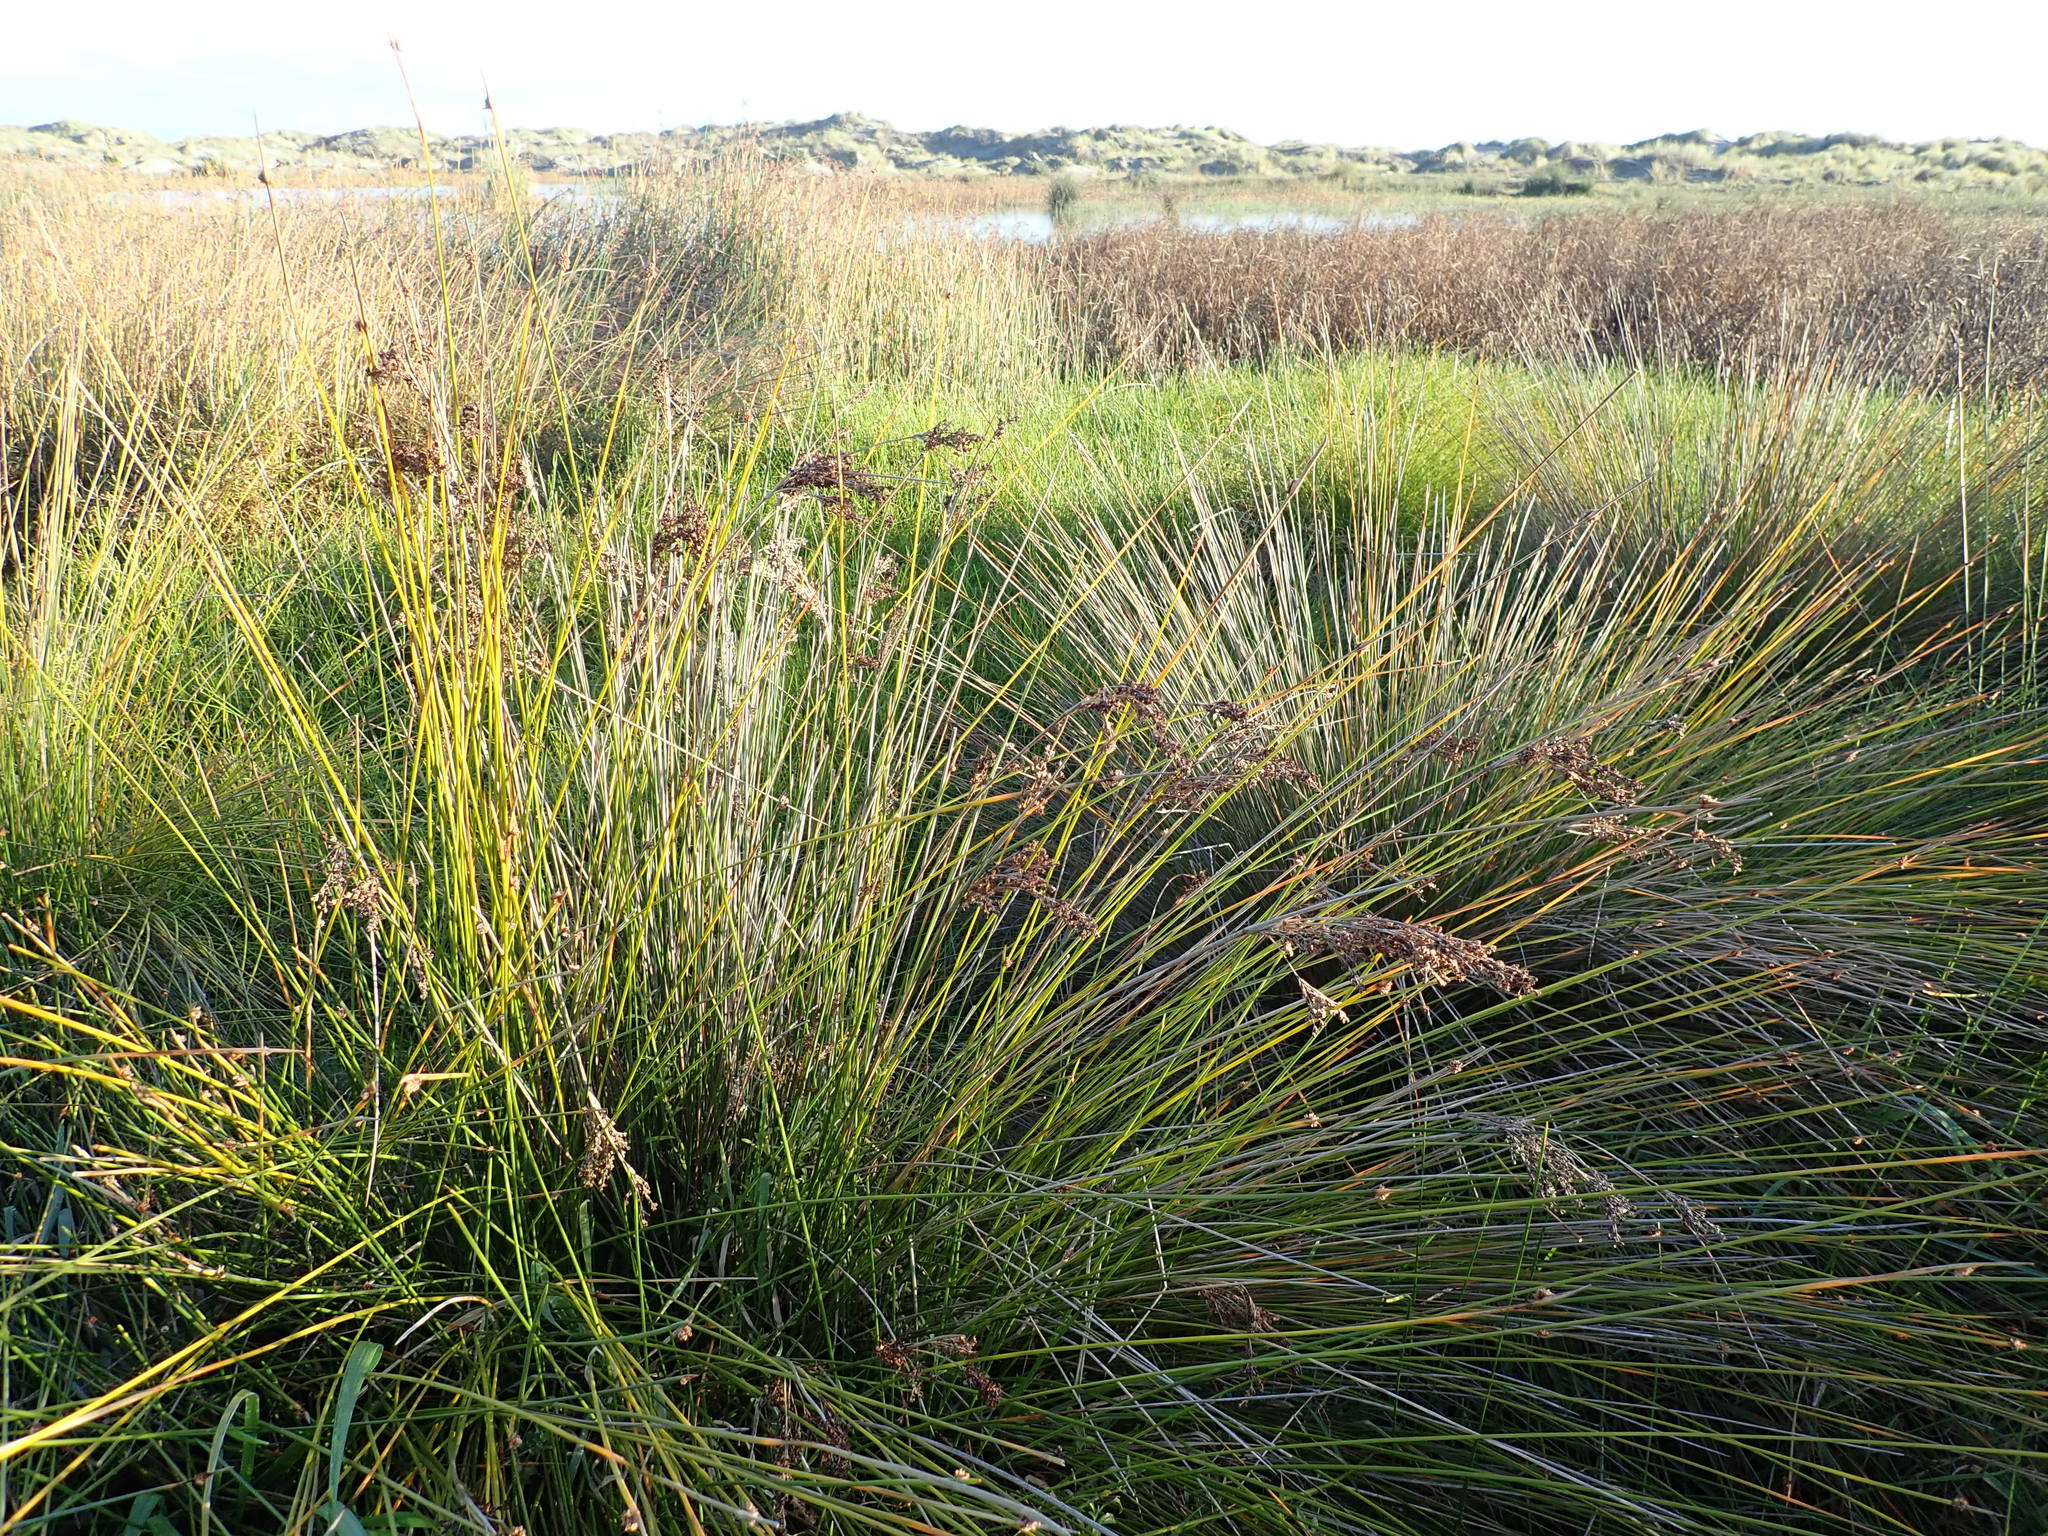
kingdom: Plantae
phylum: Tracheophyta
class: Liliopsida
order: Poales
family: Juncaceae
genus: Juncus
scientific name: Juncus kraussii
